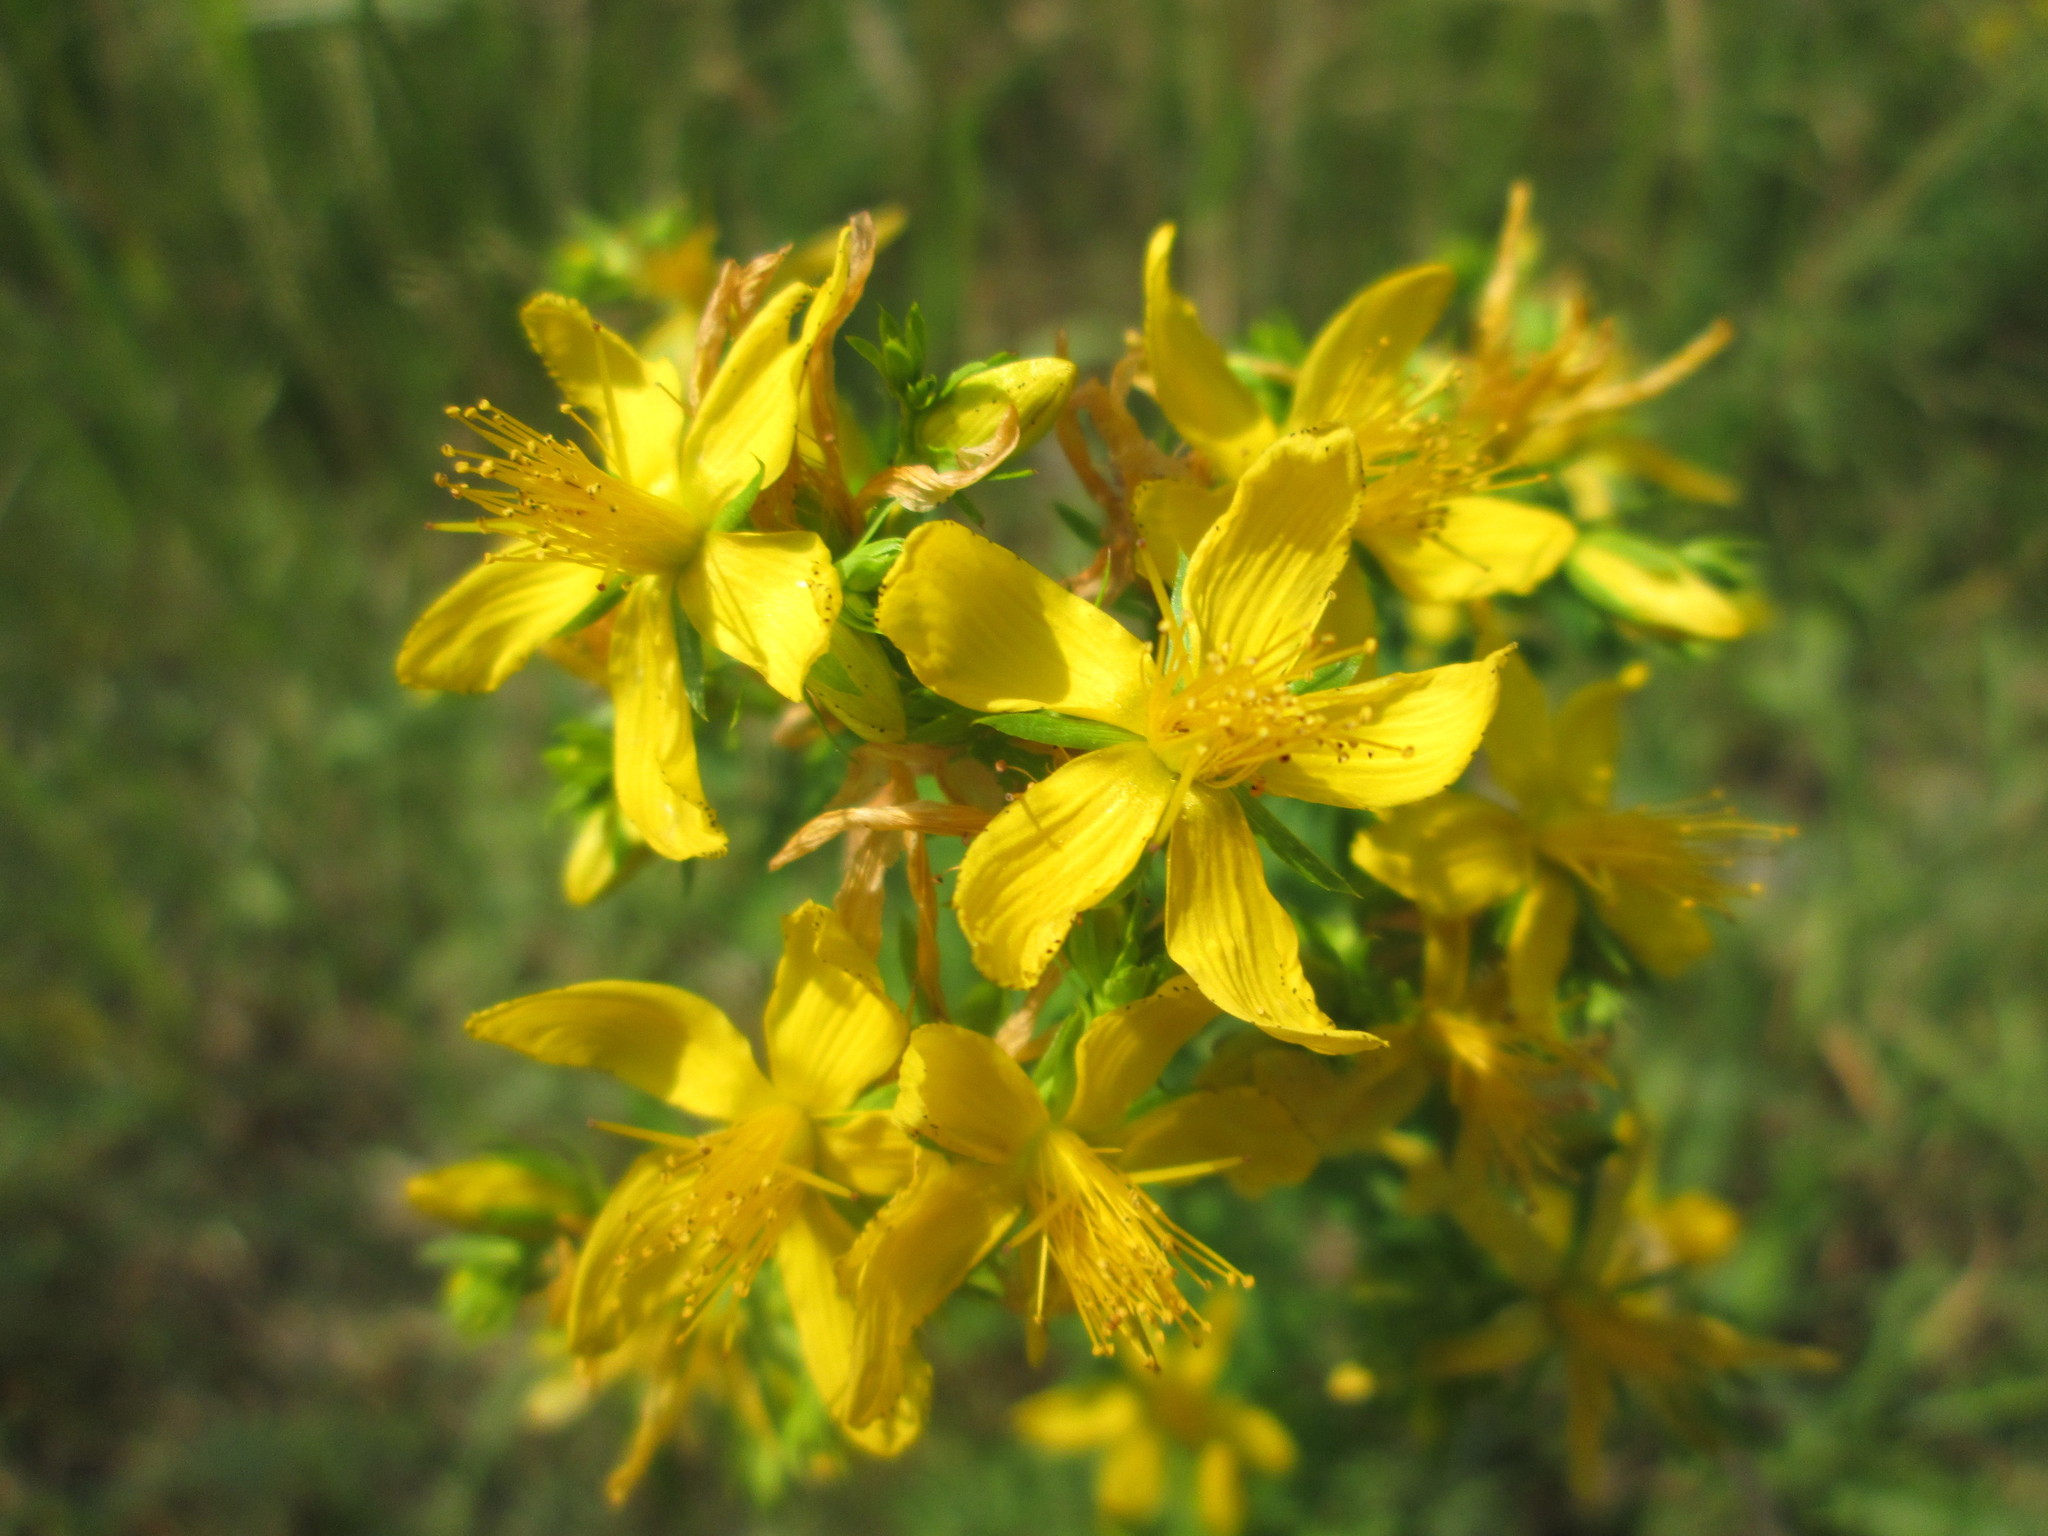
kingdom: Plantae
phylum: Tracheophyta
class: Magnoliopsida
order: Malpighiales
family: Hypericaceae
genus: Hypericum
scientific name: Hypericum perforatum
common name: Common st. johnswort
